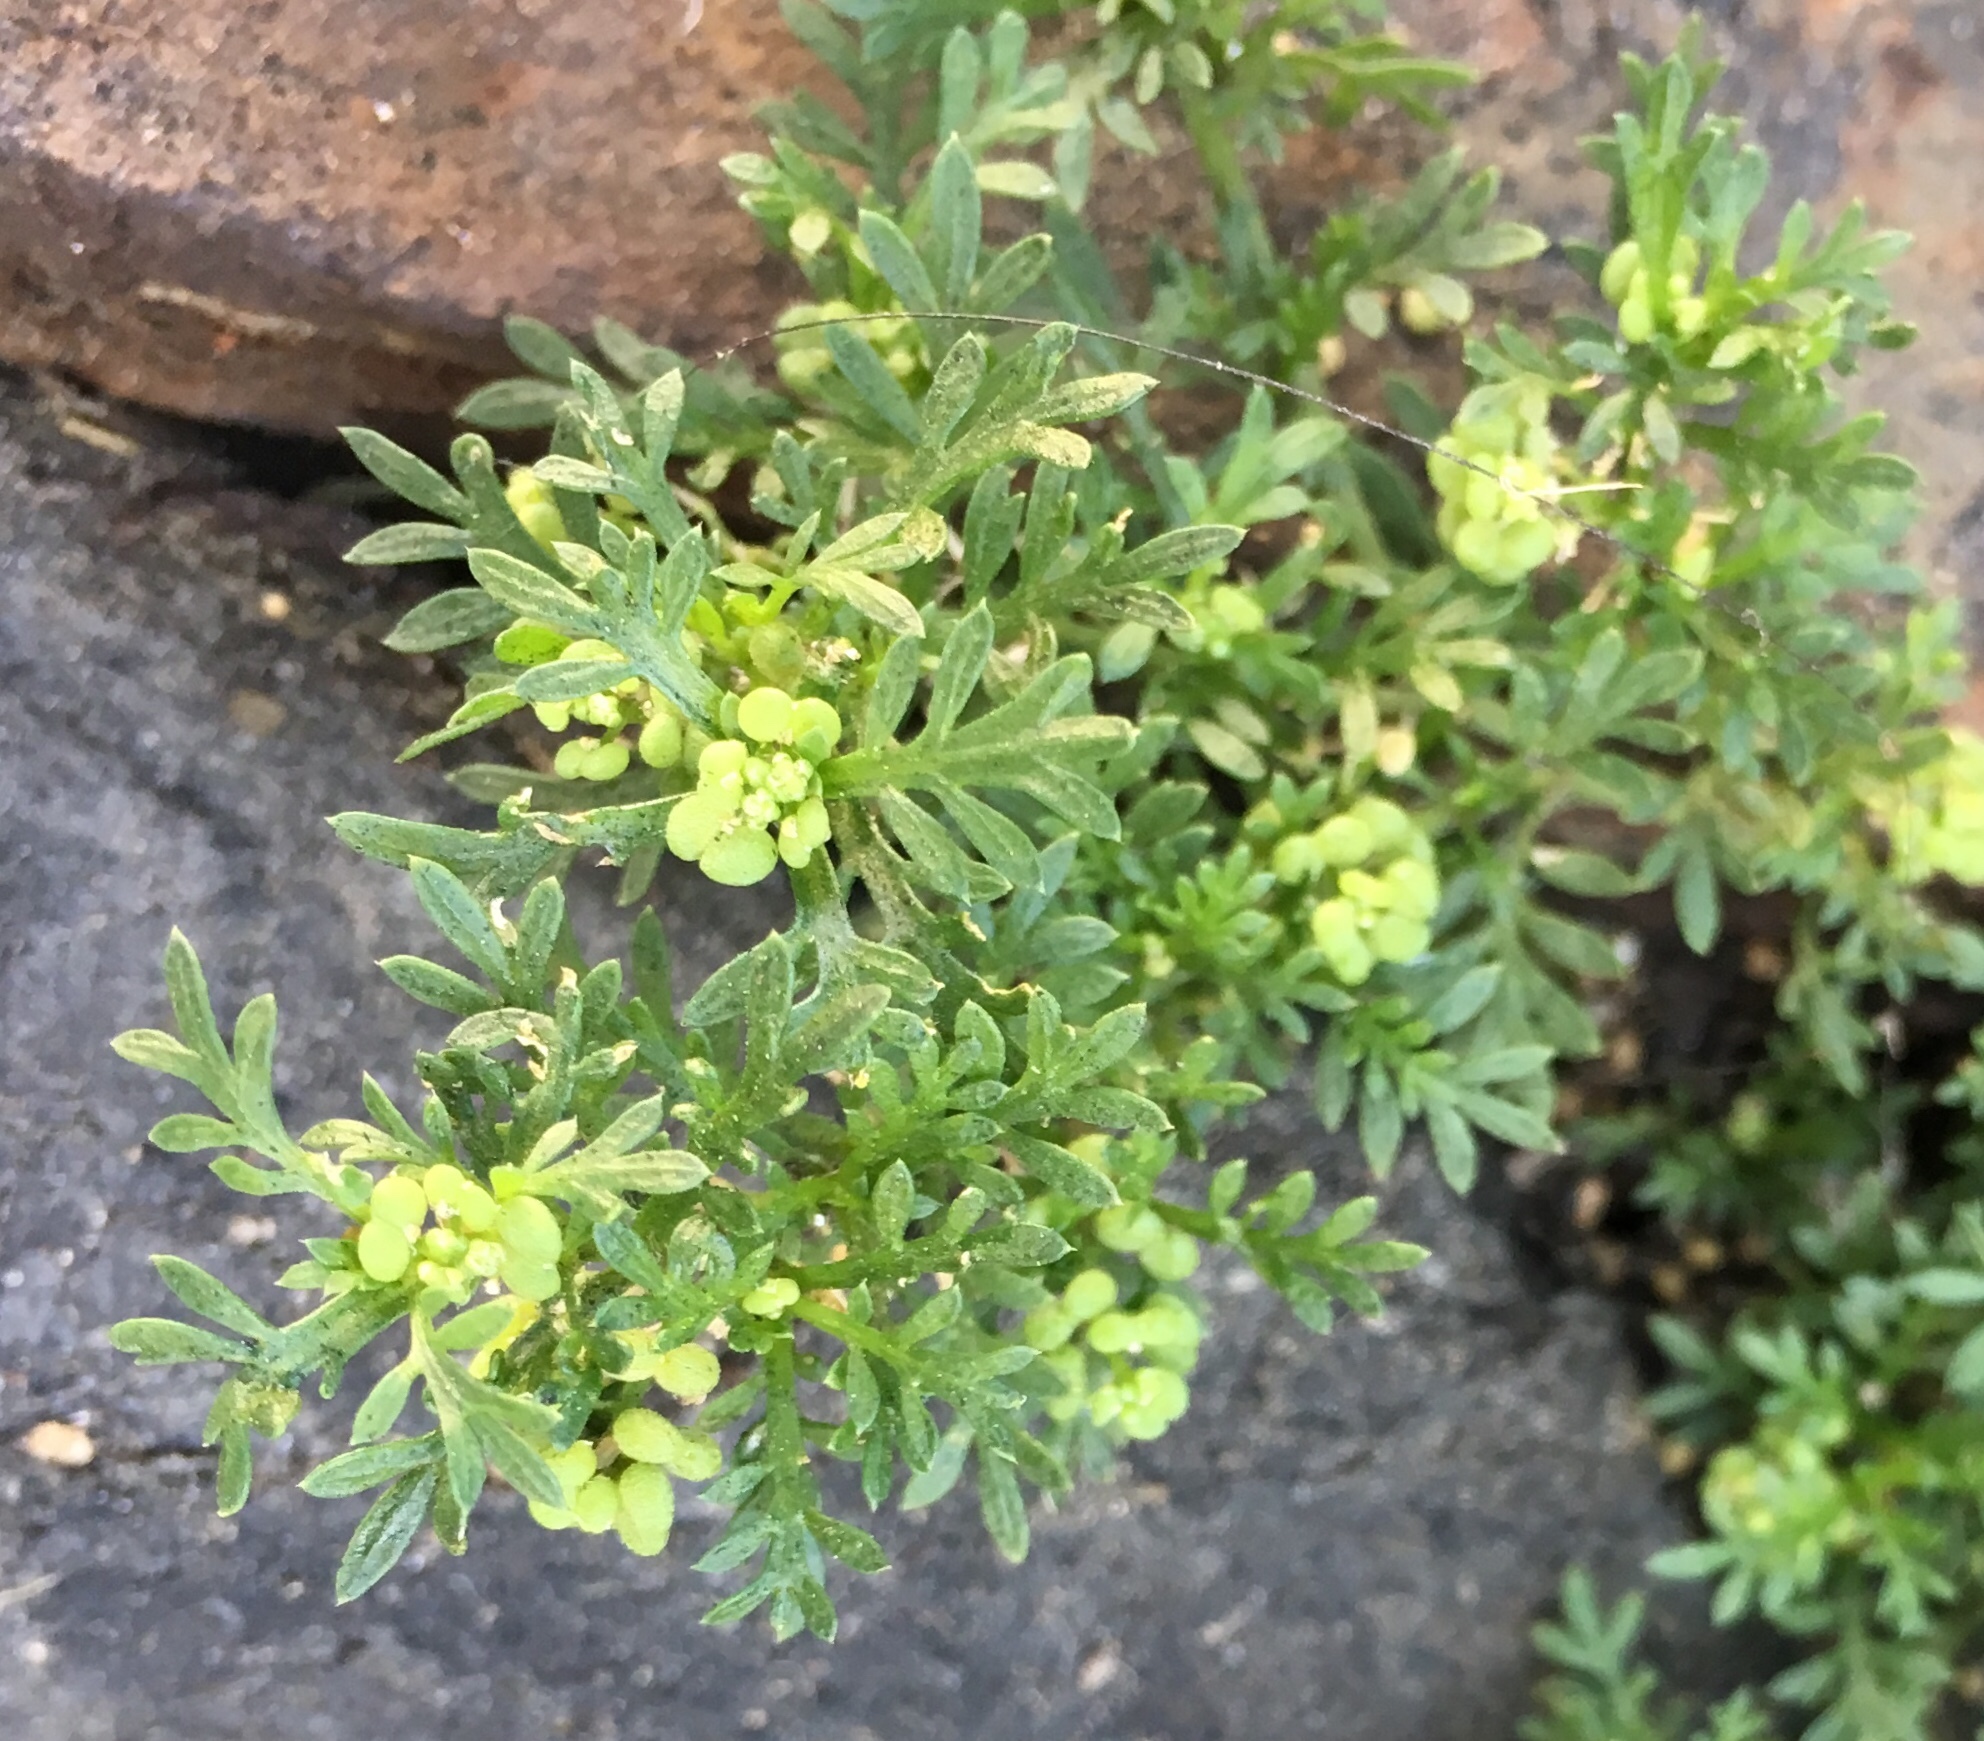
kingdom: Plantae
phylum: Tracheophyta
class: Magnoliopsida
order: Brassicales
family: Brassicaceae
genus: Lepidium
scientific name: Lepidium didymum
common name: Lesser swinecress
